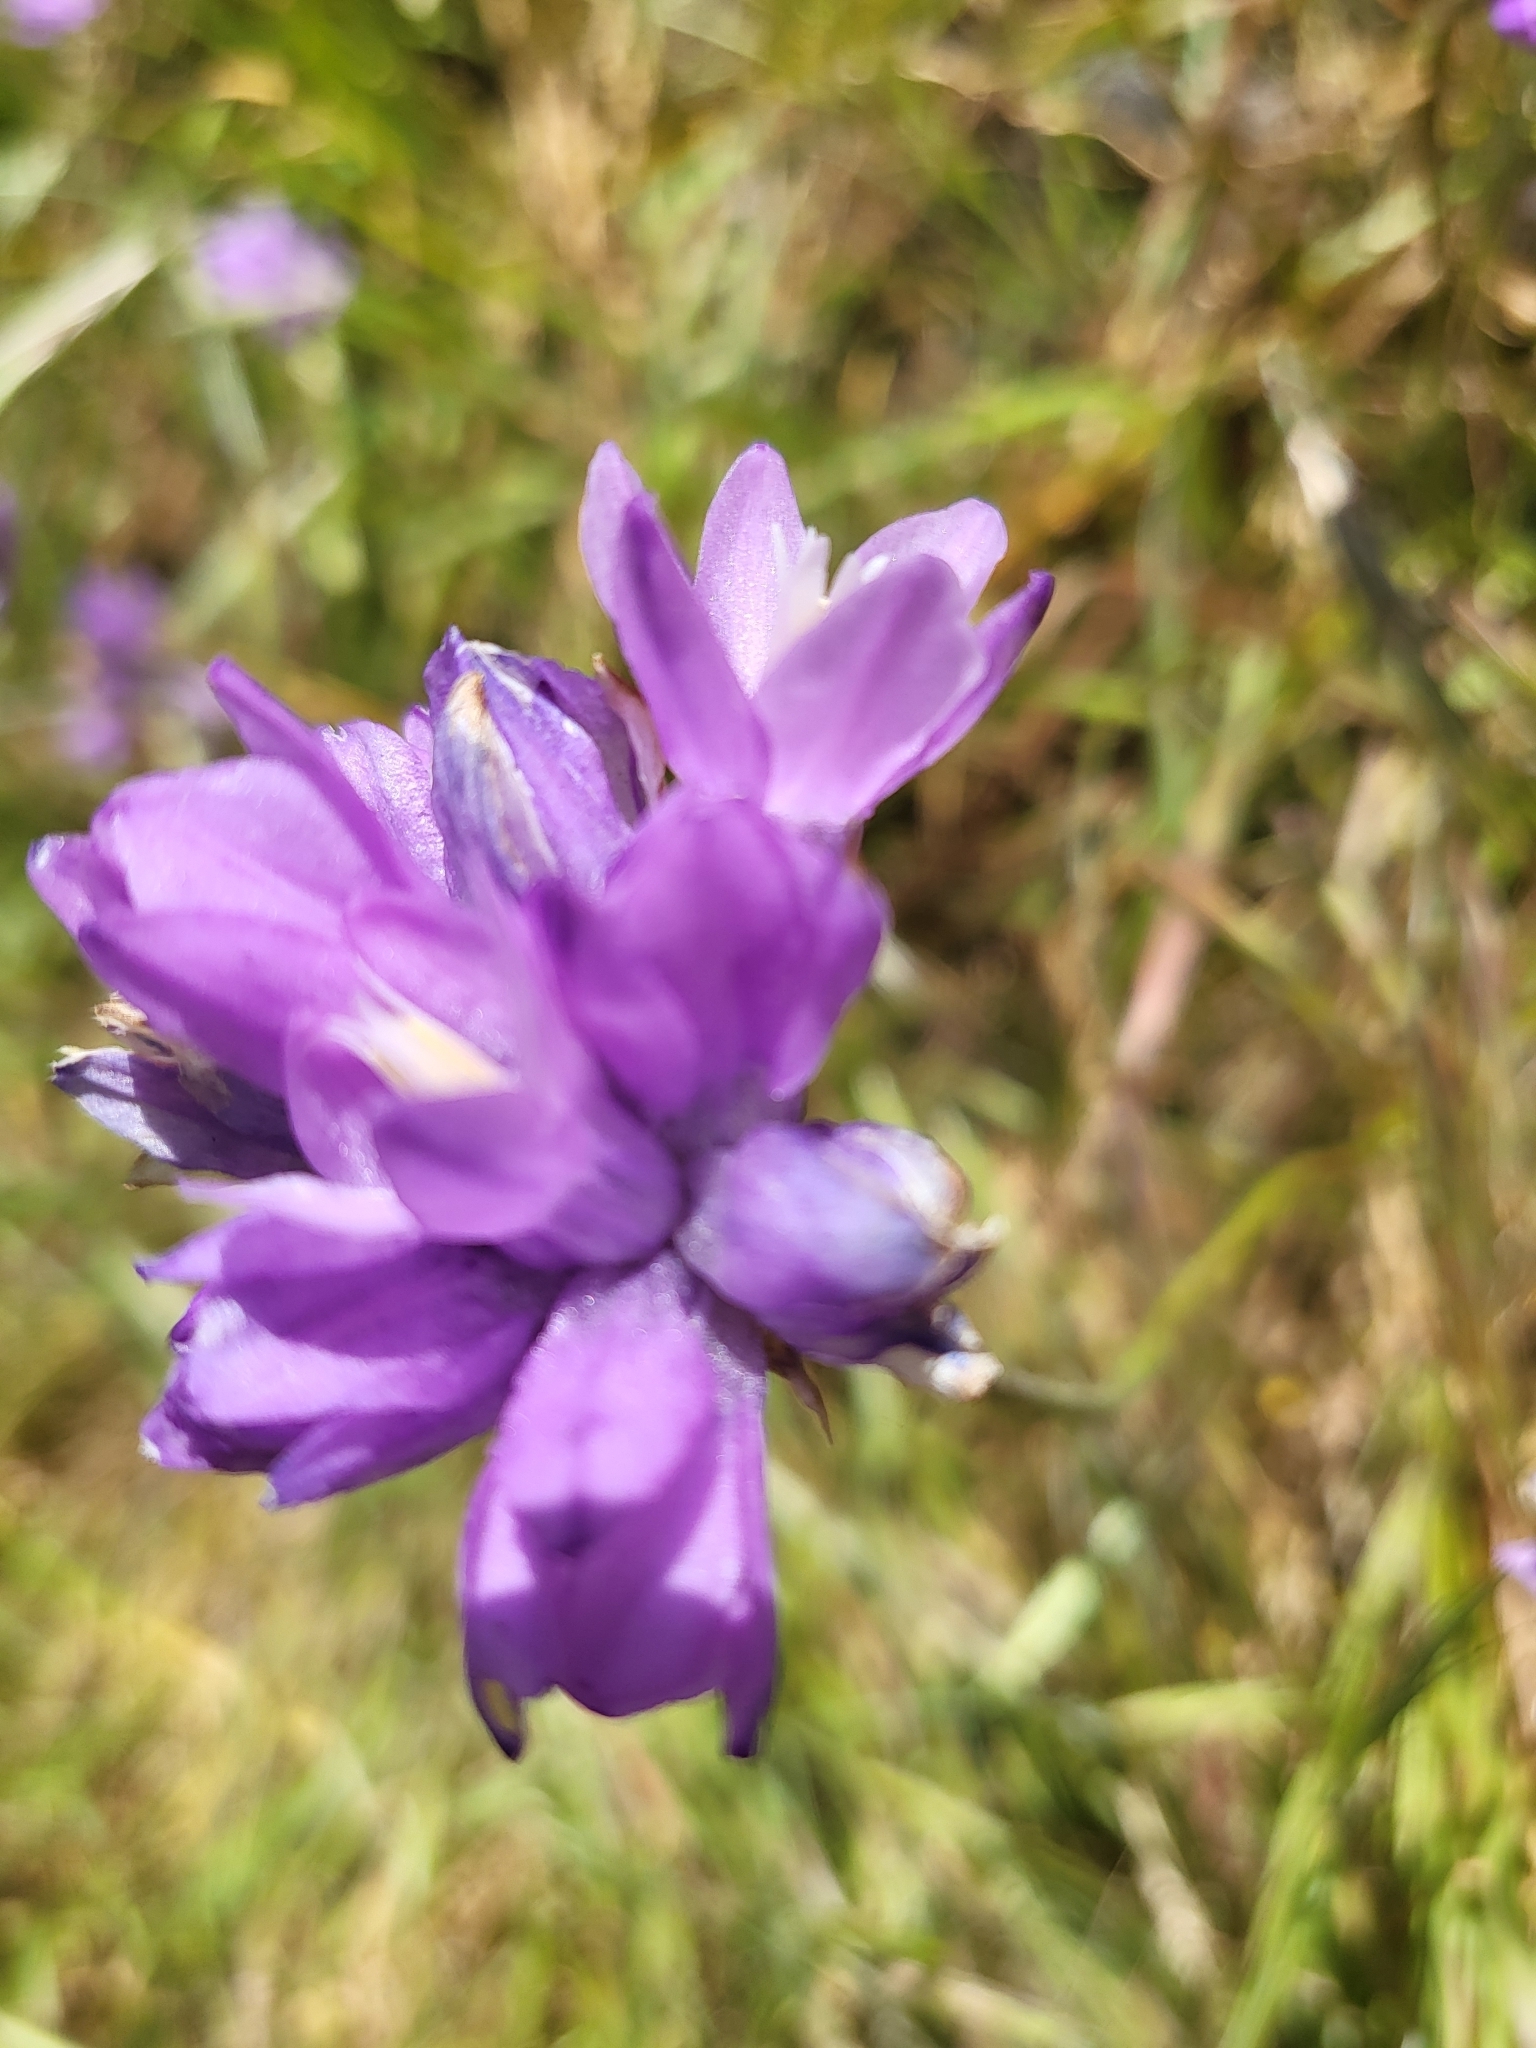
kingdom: Plantae
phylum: Tracheophyta
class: Liliopsida
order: Asparagales
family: Asparagaceae
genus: Dipterostemon
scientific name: Dipterostemon capitatus
